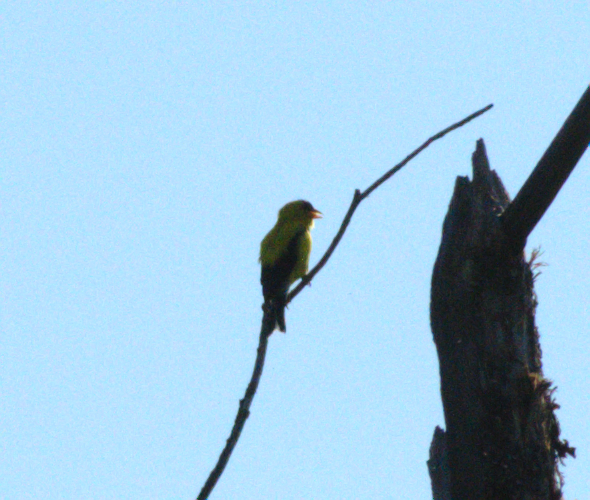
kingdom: Animalia
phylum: Chordata
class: Aves
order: Passeriformes
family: Fringillidae
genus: Spinus
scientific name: Spinus tristis
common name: American goldfinch
